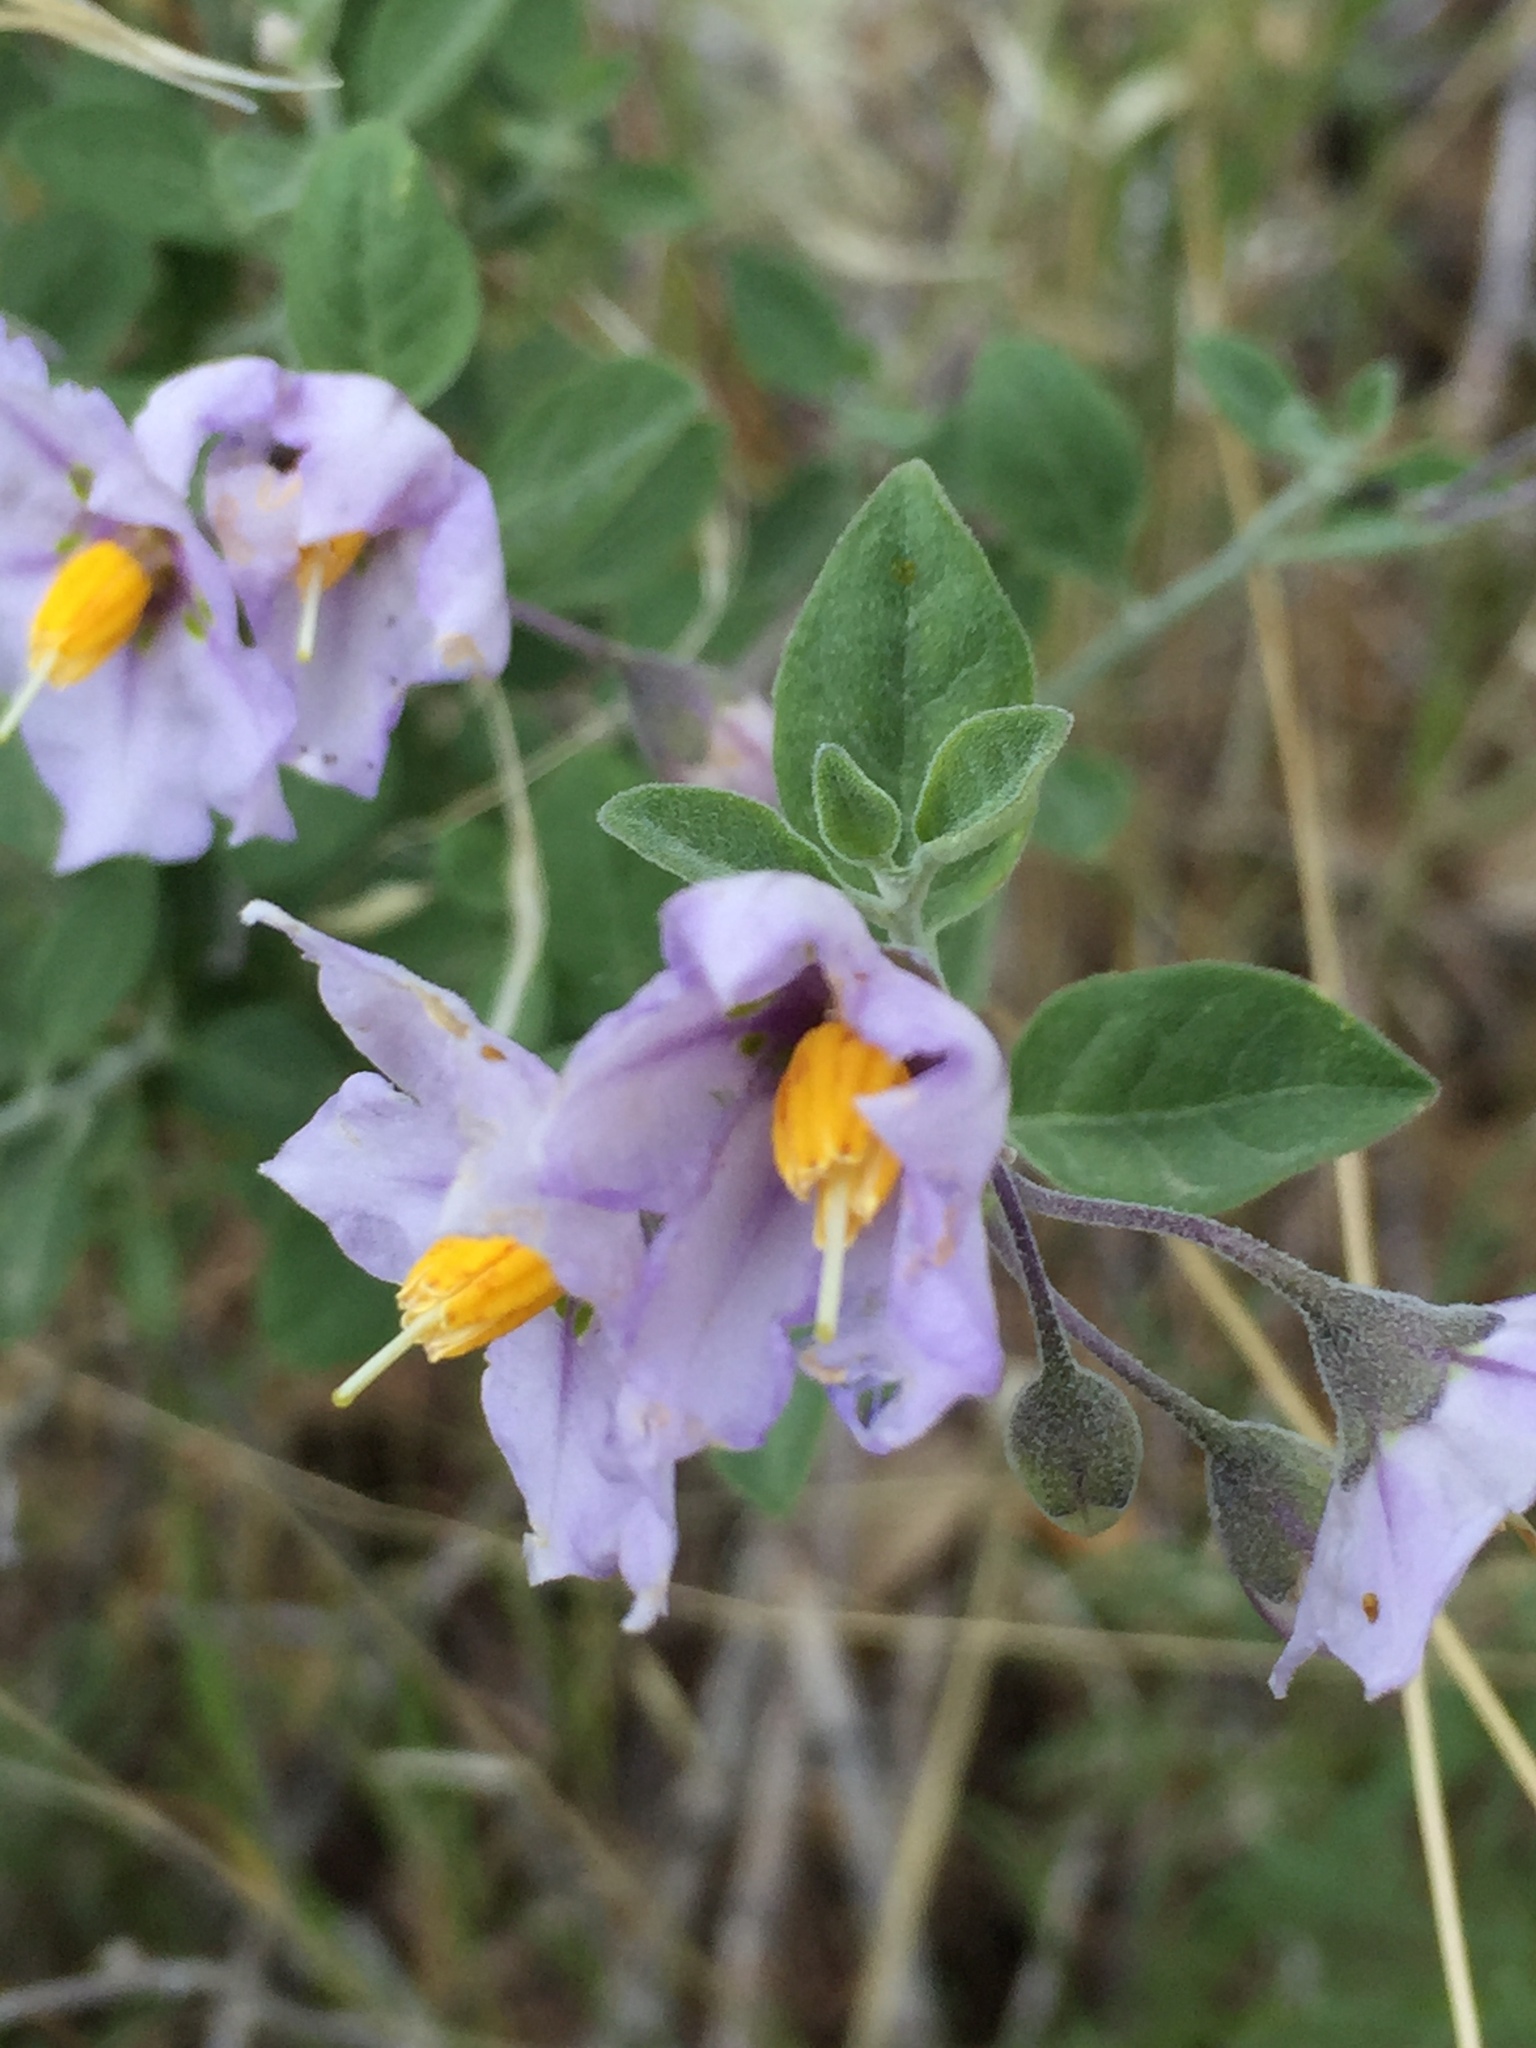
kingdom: Plantae
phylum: Tracheophyta
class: Magnoliopsida
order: Solanales
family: Solanaceae
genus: Solanum
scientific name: Solanum umbelliferum
